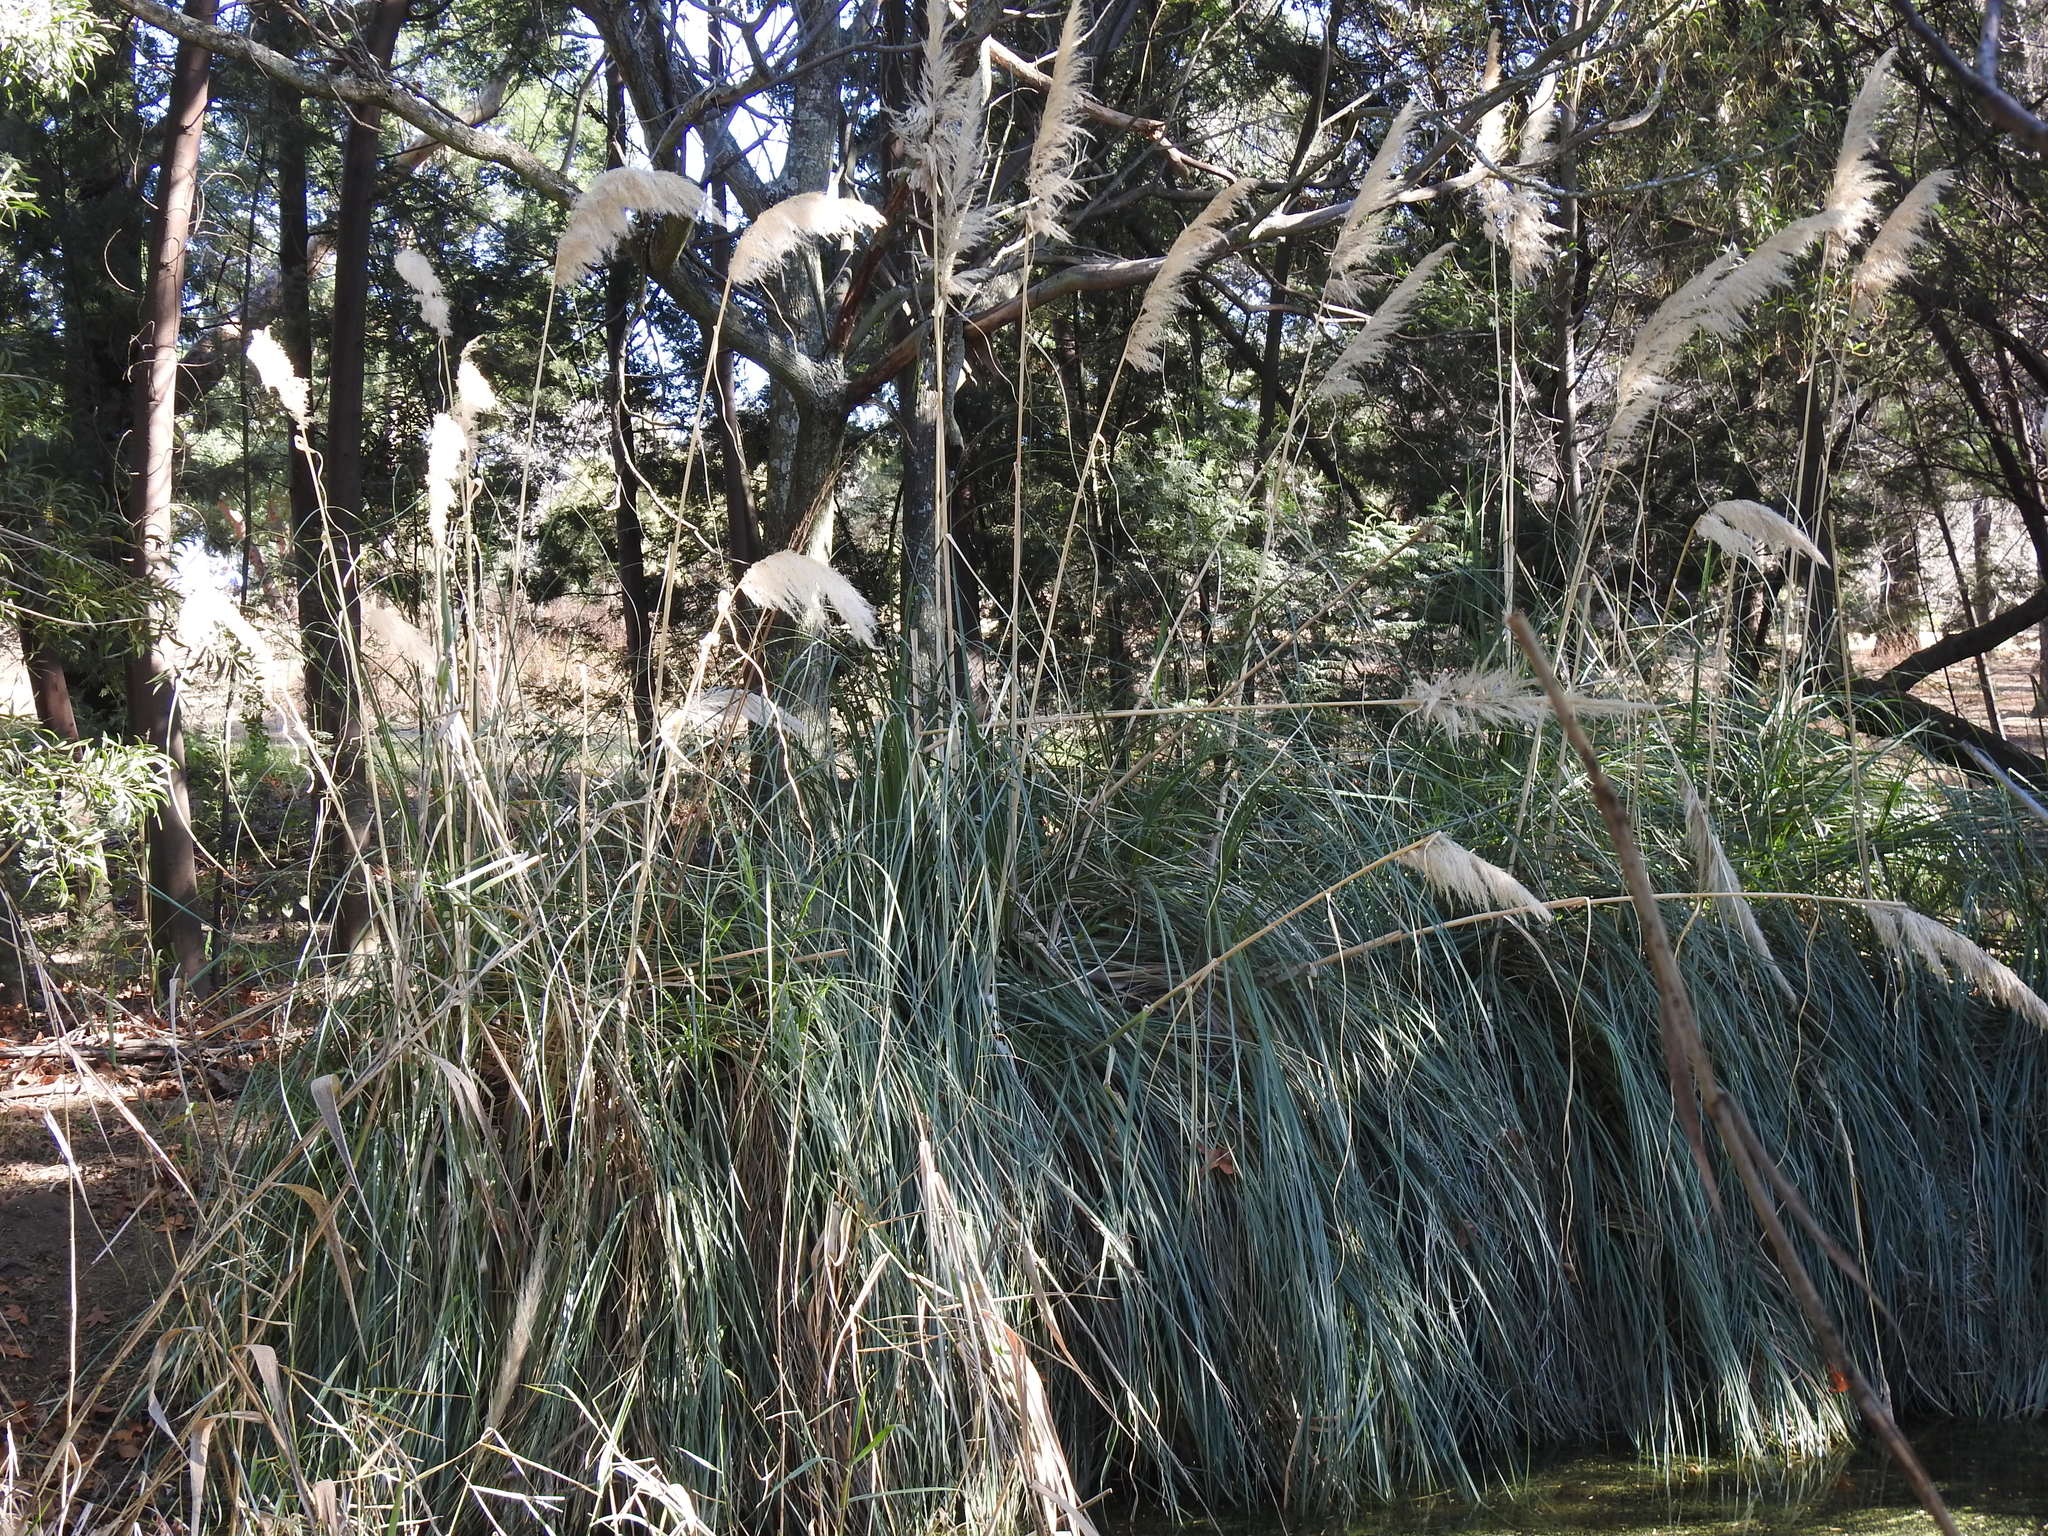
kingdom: Plantae
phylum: Tracheophyta
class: Liliopsida
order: Poales
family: Poaceae
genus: Cortaderia
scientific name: Cortaderia selloana
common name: Uruguayan pampas grass
